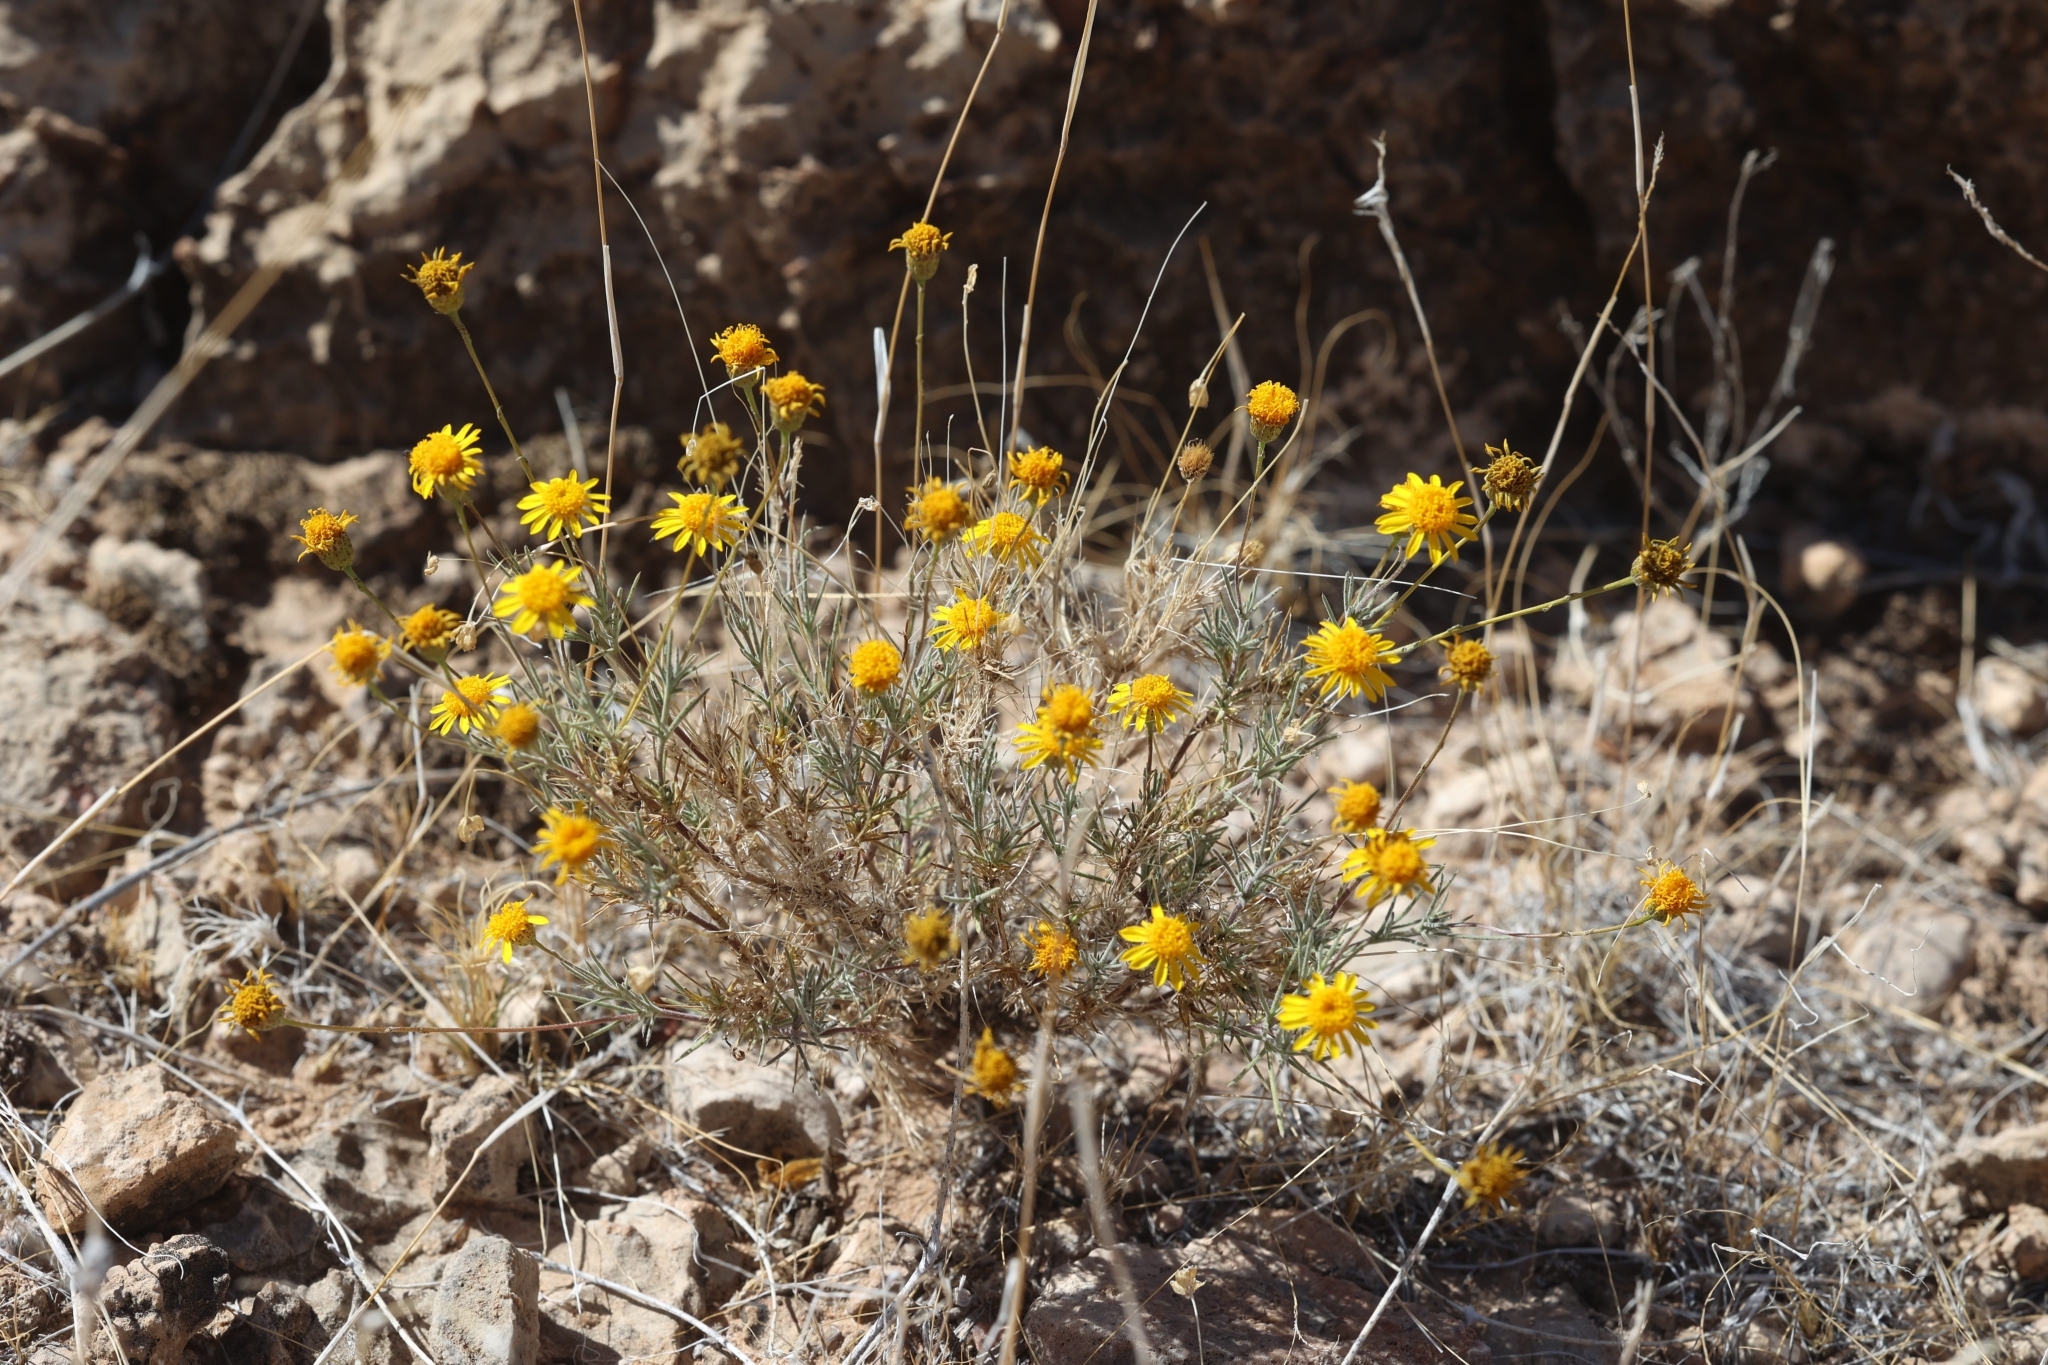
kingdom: Plantae
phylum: Tracheophyta
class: Magnoliopsida
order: Asterales
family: Asteraceae
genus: Thymophylla
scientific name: Thymophylla pentachaeta
